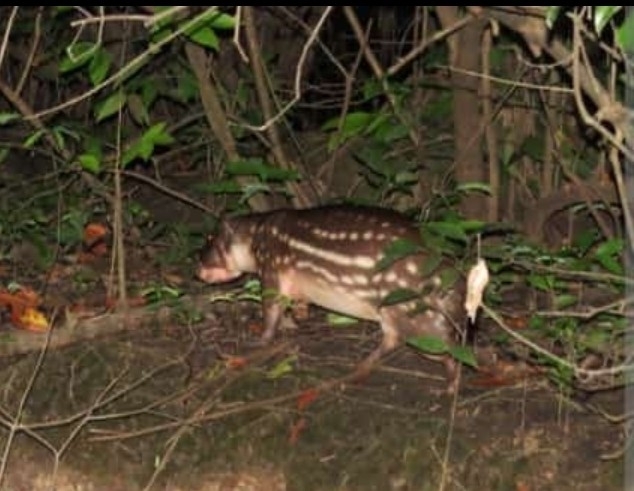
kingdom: Animalia
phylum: Chordata
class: Mammalia
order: Rodentia
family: Cuniculidae
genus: Cuniculus
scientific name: Cuniculus paca
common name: Lowland paca
